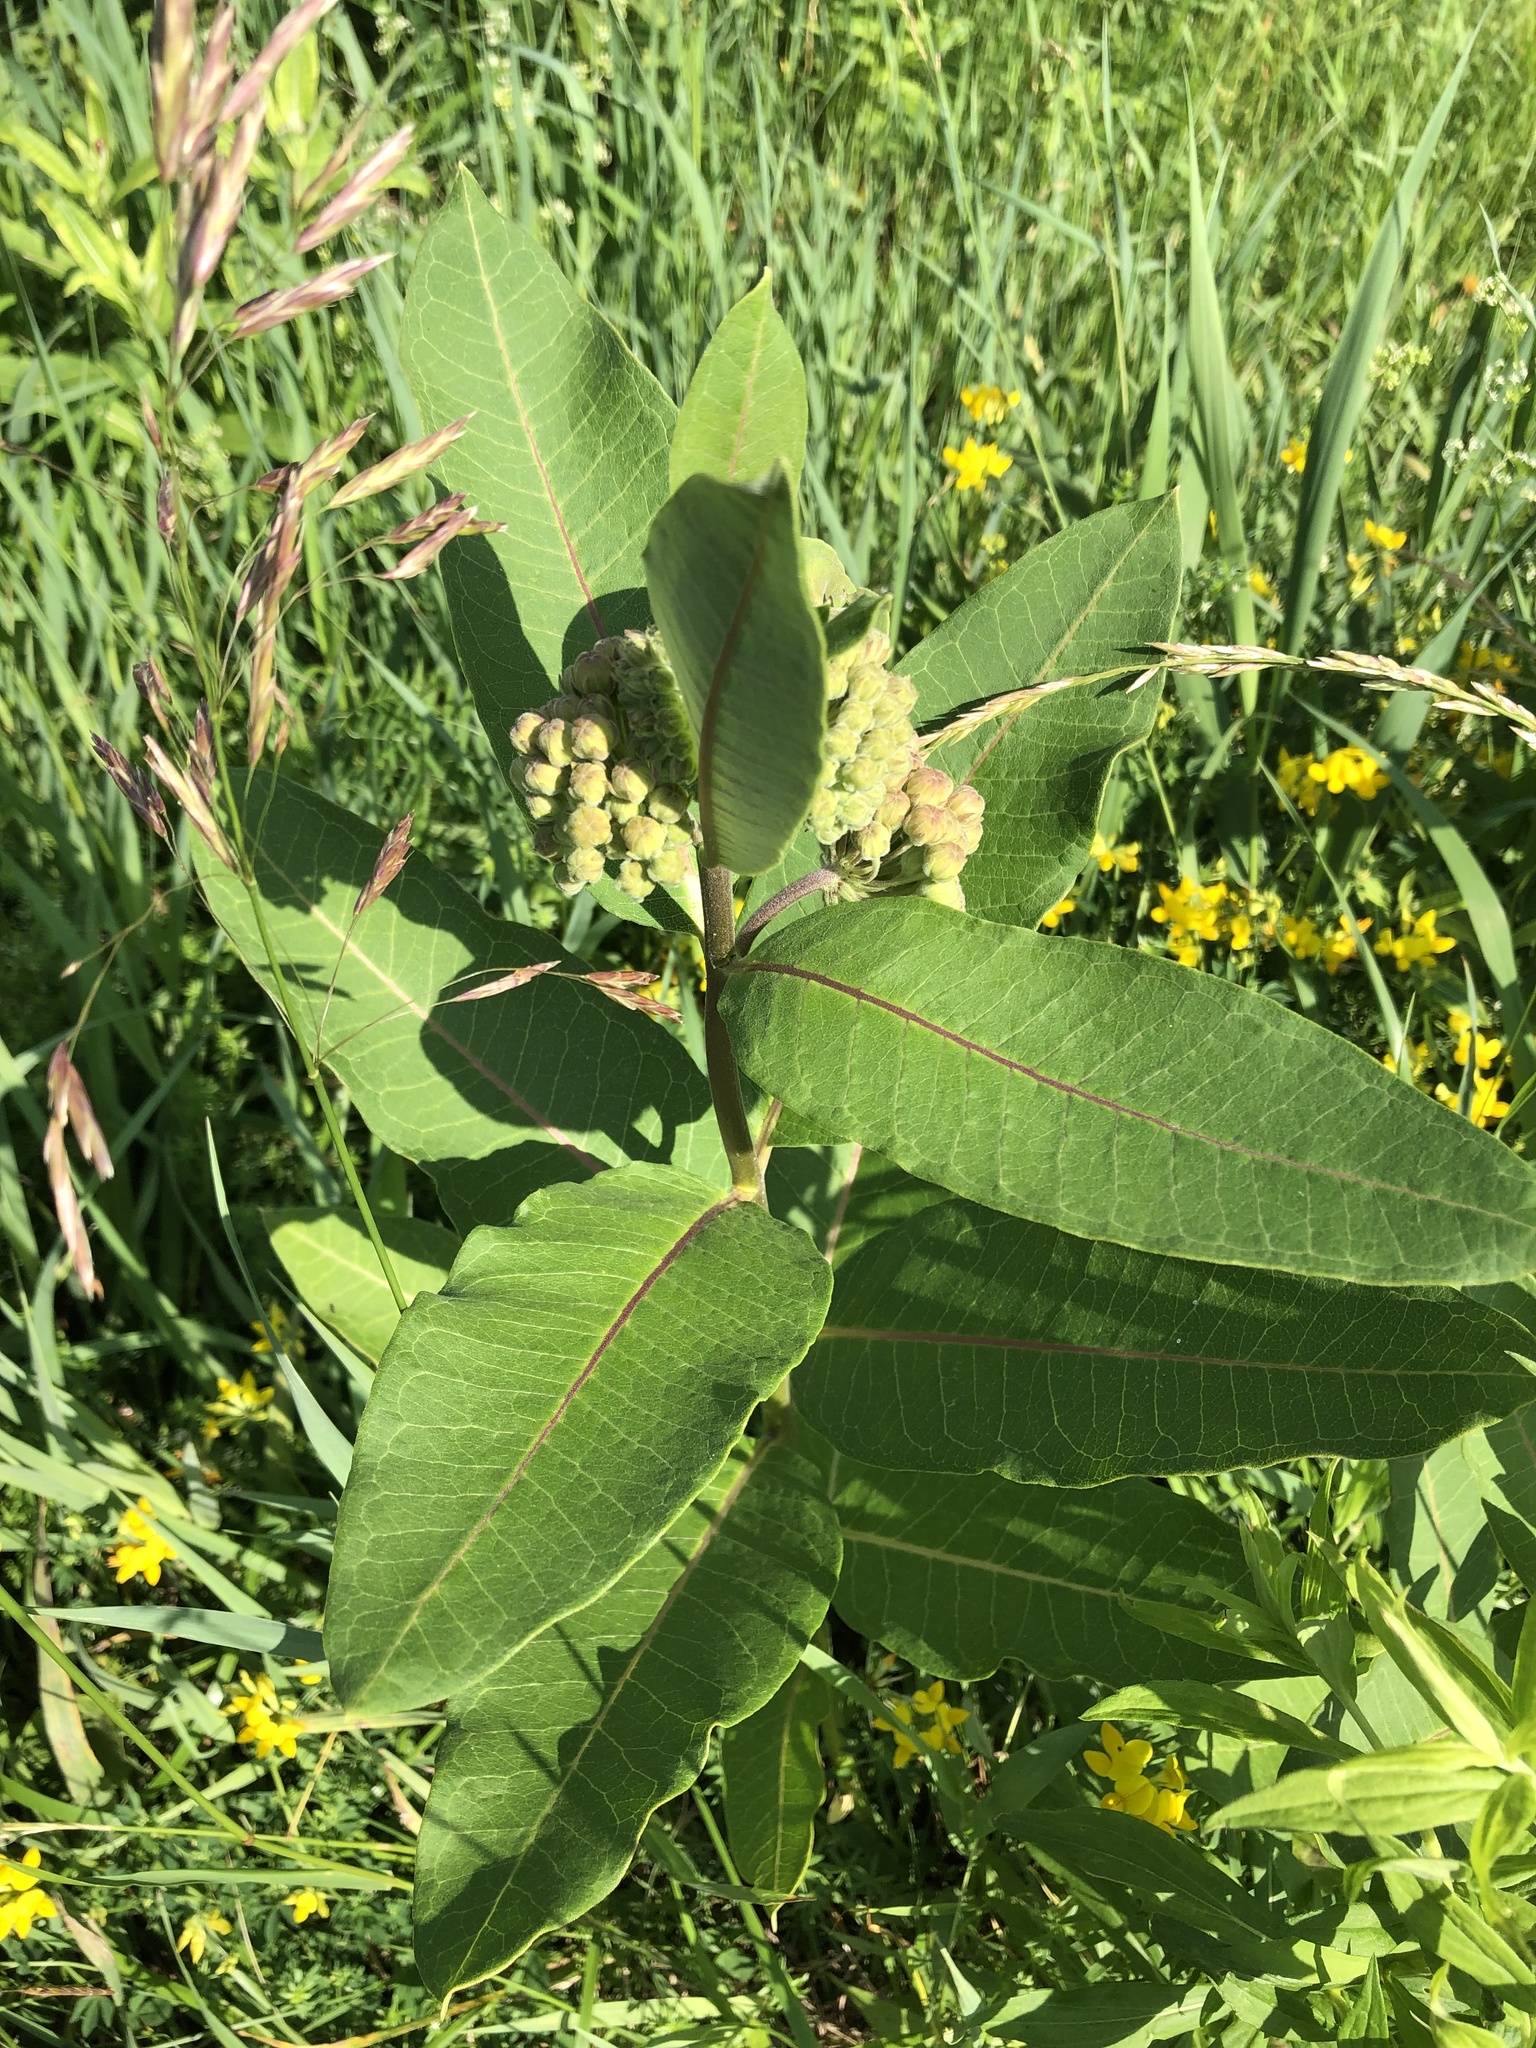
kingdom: Plantae
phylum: Tracheophyta
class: Magnoliopsida
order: Gentianales
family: Apocynaceae
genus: Asclepias
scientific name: Asclepias syriaca
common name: Common milkweed
